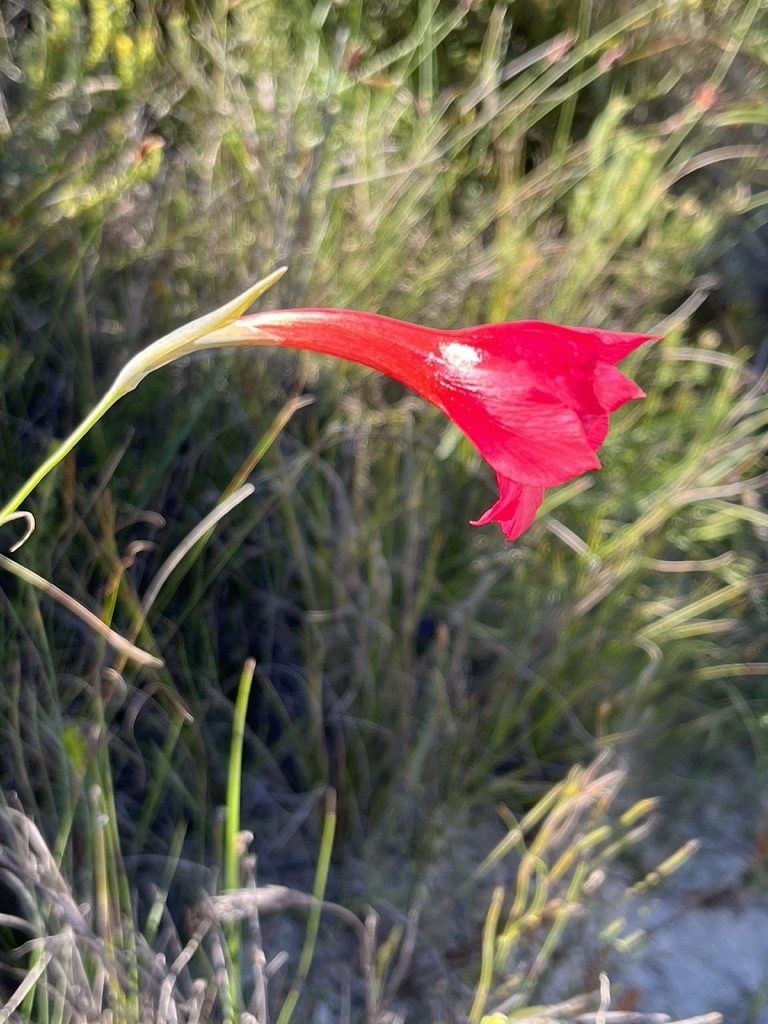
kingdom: Plantae
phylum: Tracheophyta
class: Liliopsida
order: Asparagales
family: Iridaceae
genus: Gladiolus
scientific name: Gladiolus meridionalis
